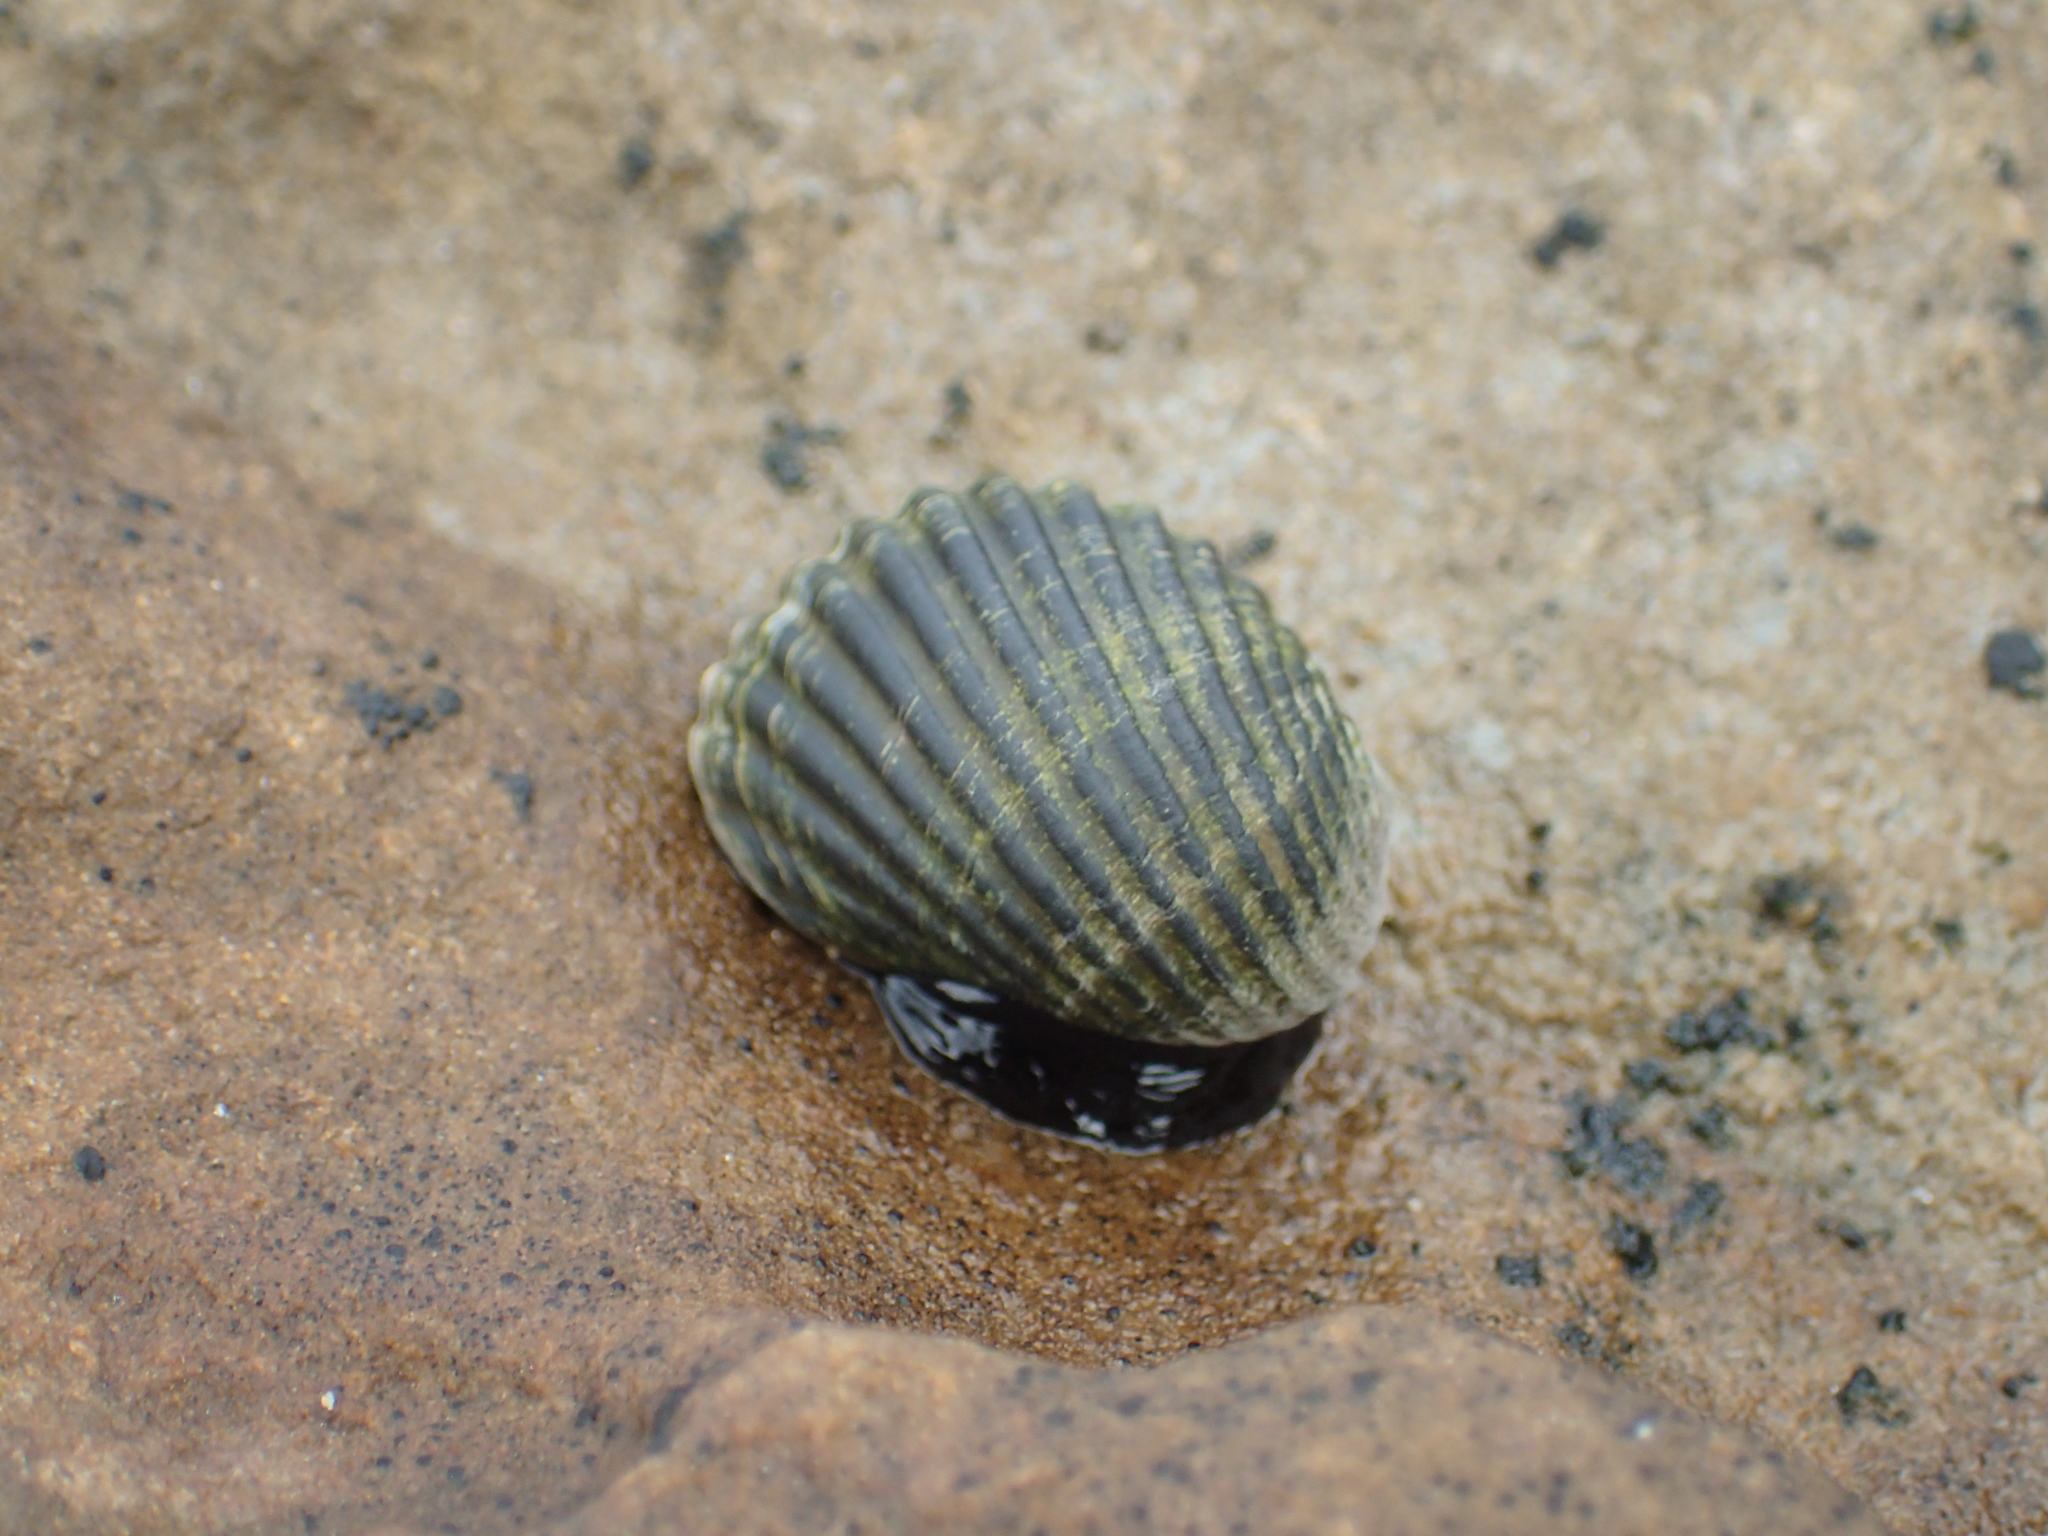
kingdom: Animalia
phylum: Mollusca
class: Gastropoda
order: Cycloneritida
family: Neritidae
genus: Nerita
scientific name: Nerita costata
